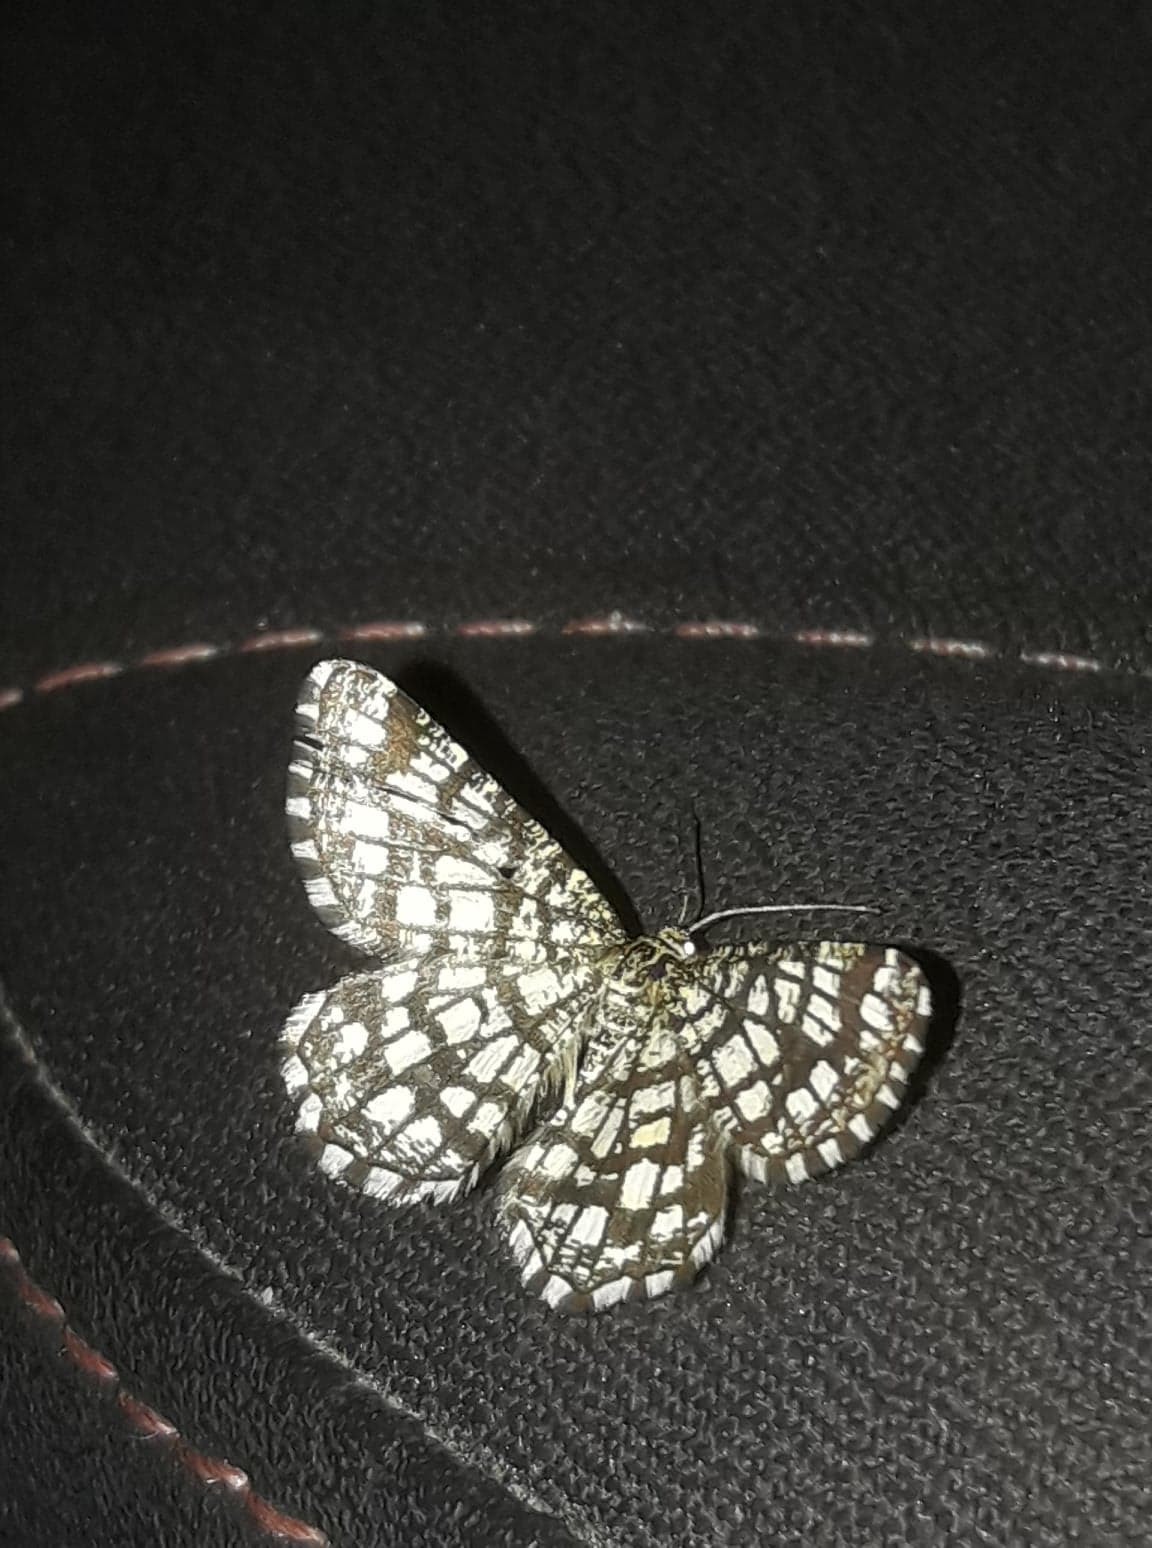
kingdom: Animalia
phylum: Arthropoda
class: Insecta
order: Lepidoptera
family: Geometridae
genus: Chiasmia
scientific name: Chiasmia clathrata
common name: Latticed heath
